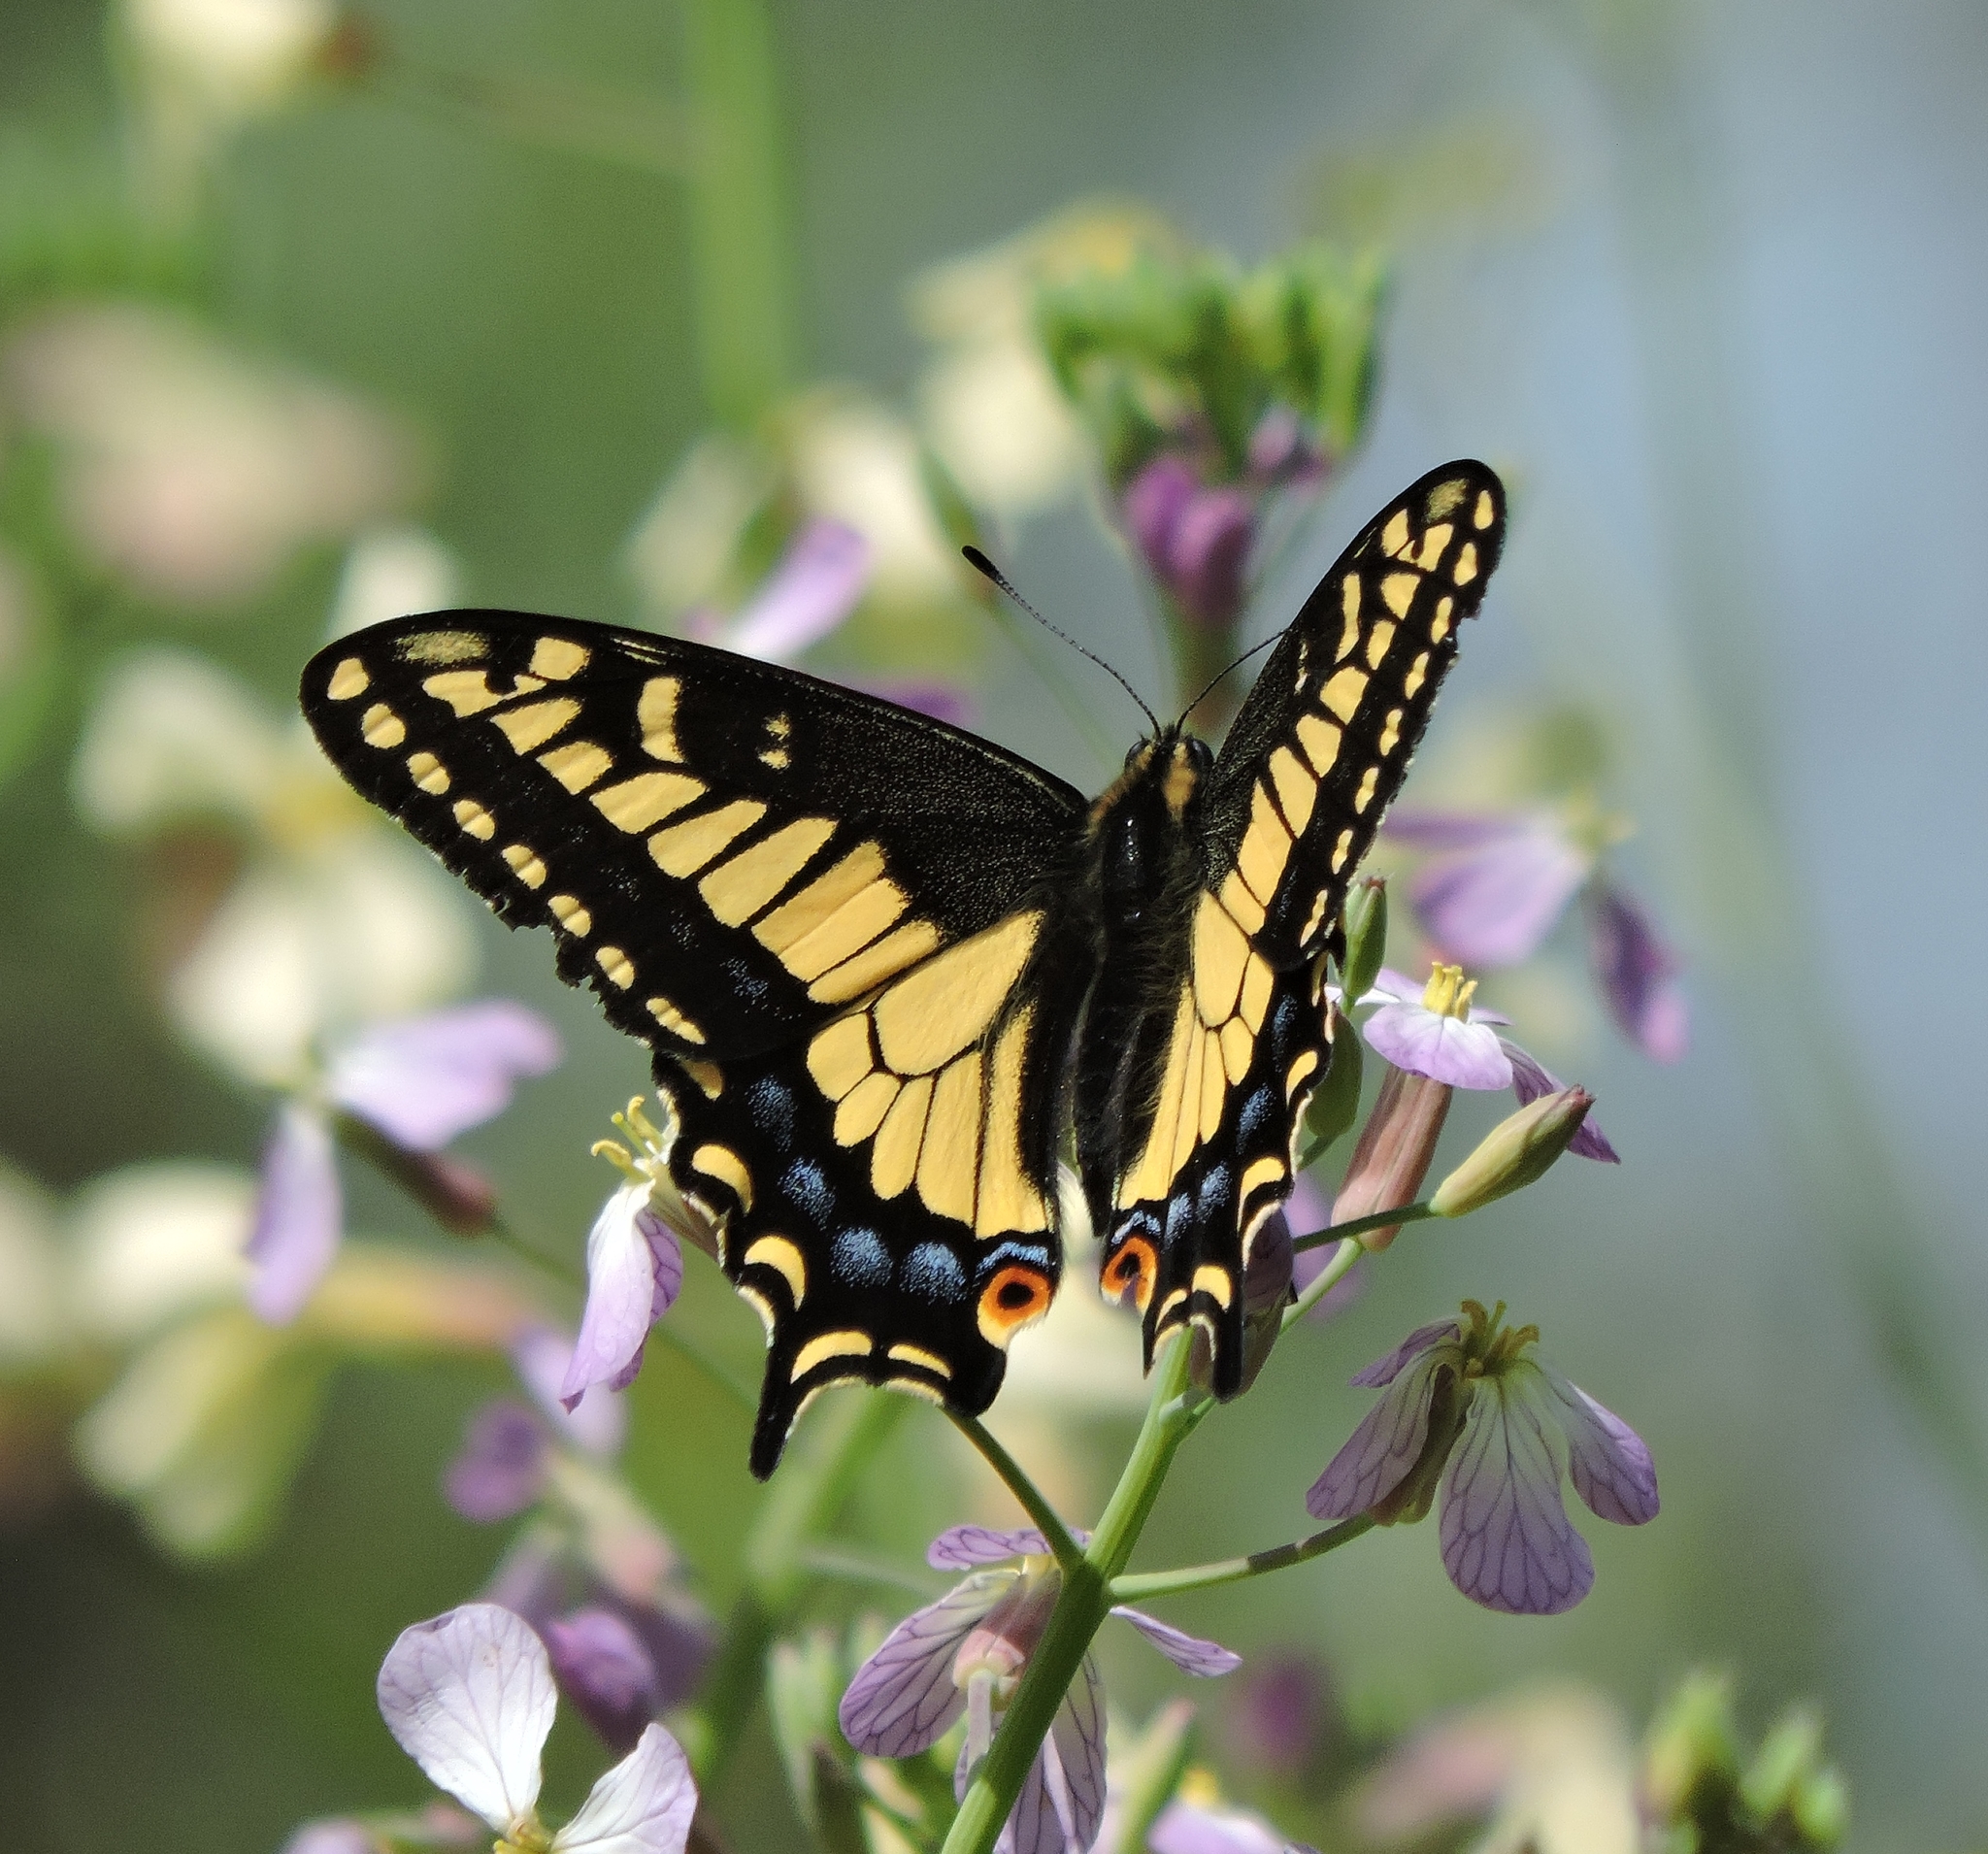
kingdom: Animalia
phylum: Arthropoda
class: Insecta
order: Lepidoptera
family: Papilionidae
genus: Papilio
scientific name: Papilio zelicaon
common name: Anise swallowtail
